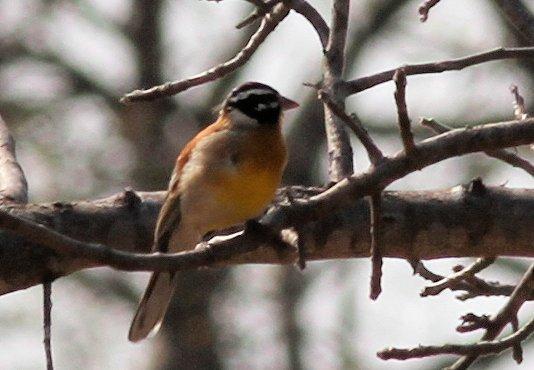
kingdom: Animalia
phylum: Chordata
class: Aves
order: Passeriformes
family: Emberizidae
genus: Emberiza
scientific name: Emberiza flaviventris
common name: Golden-breasted bunting
